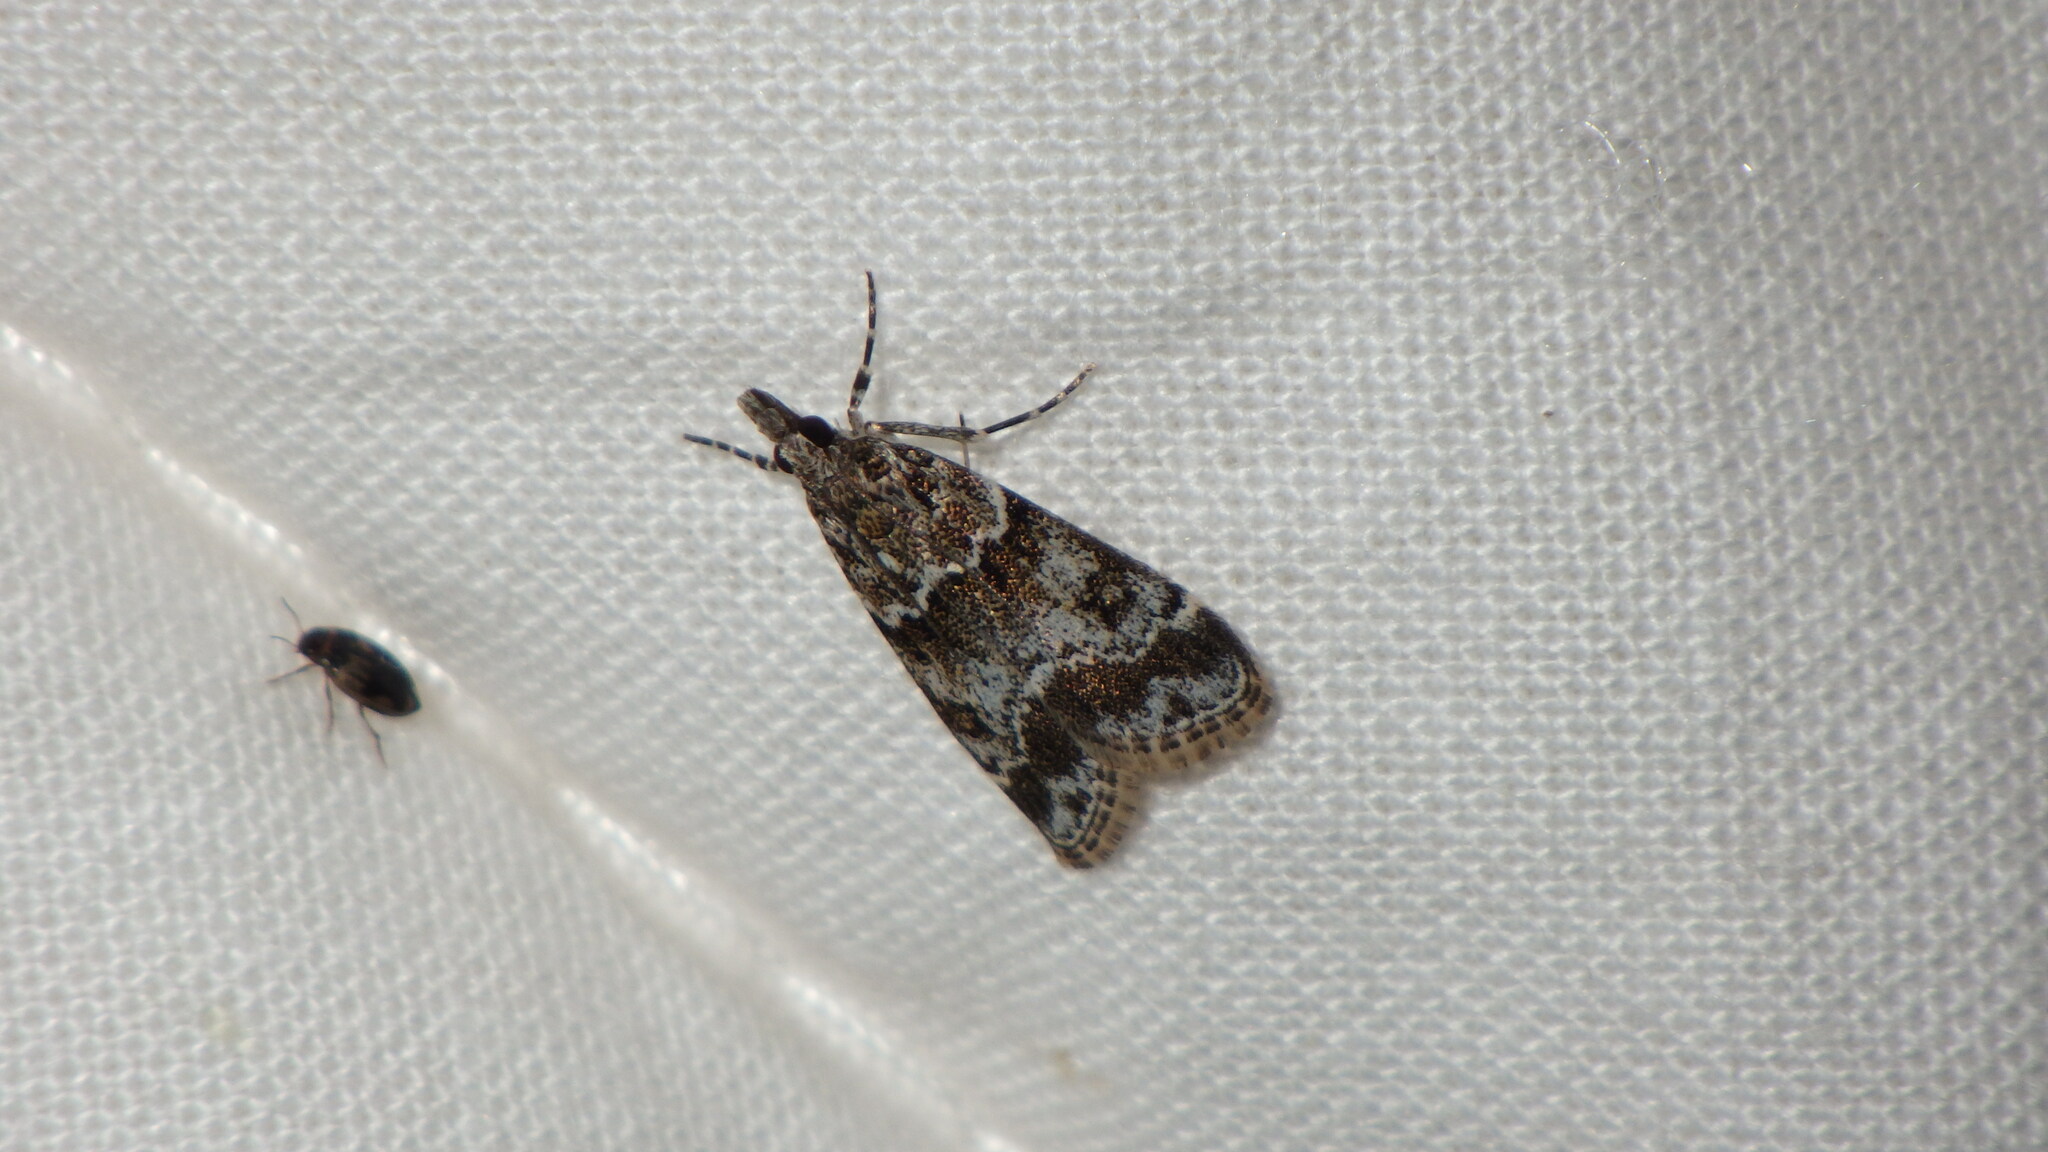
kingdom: Animalia
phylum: Arthropoda
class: Insecta
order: Lepidoptera
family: Crambidae
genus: Eudonia
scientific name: Eudonia mercurella
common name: Small grey
